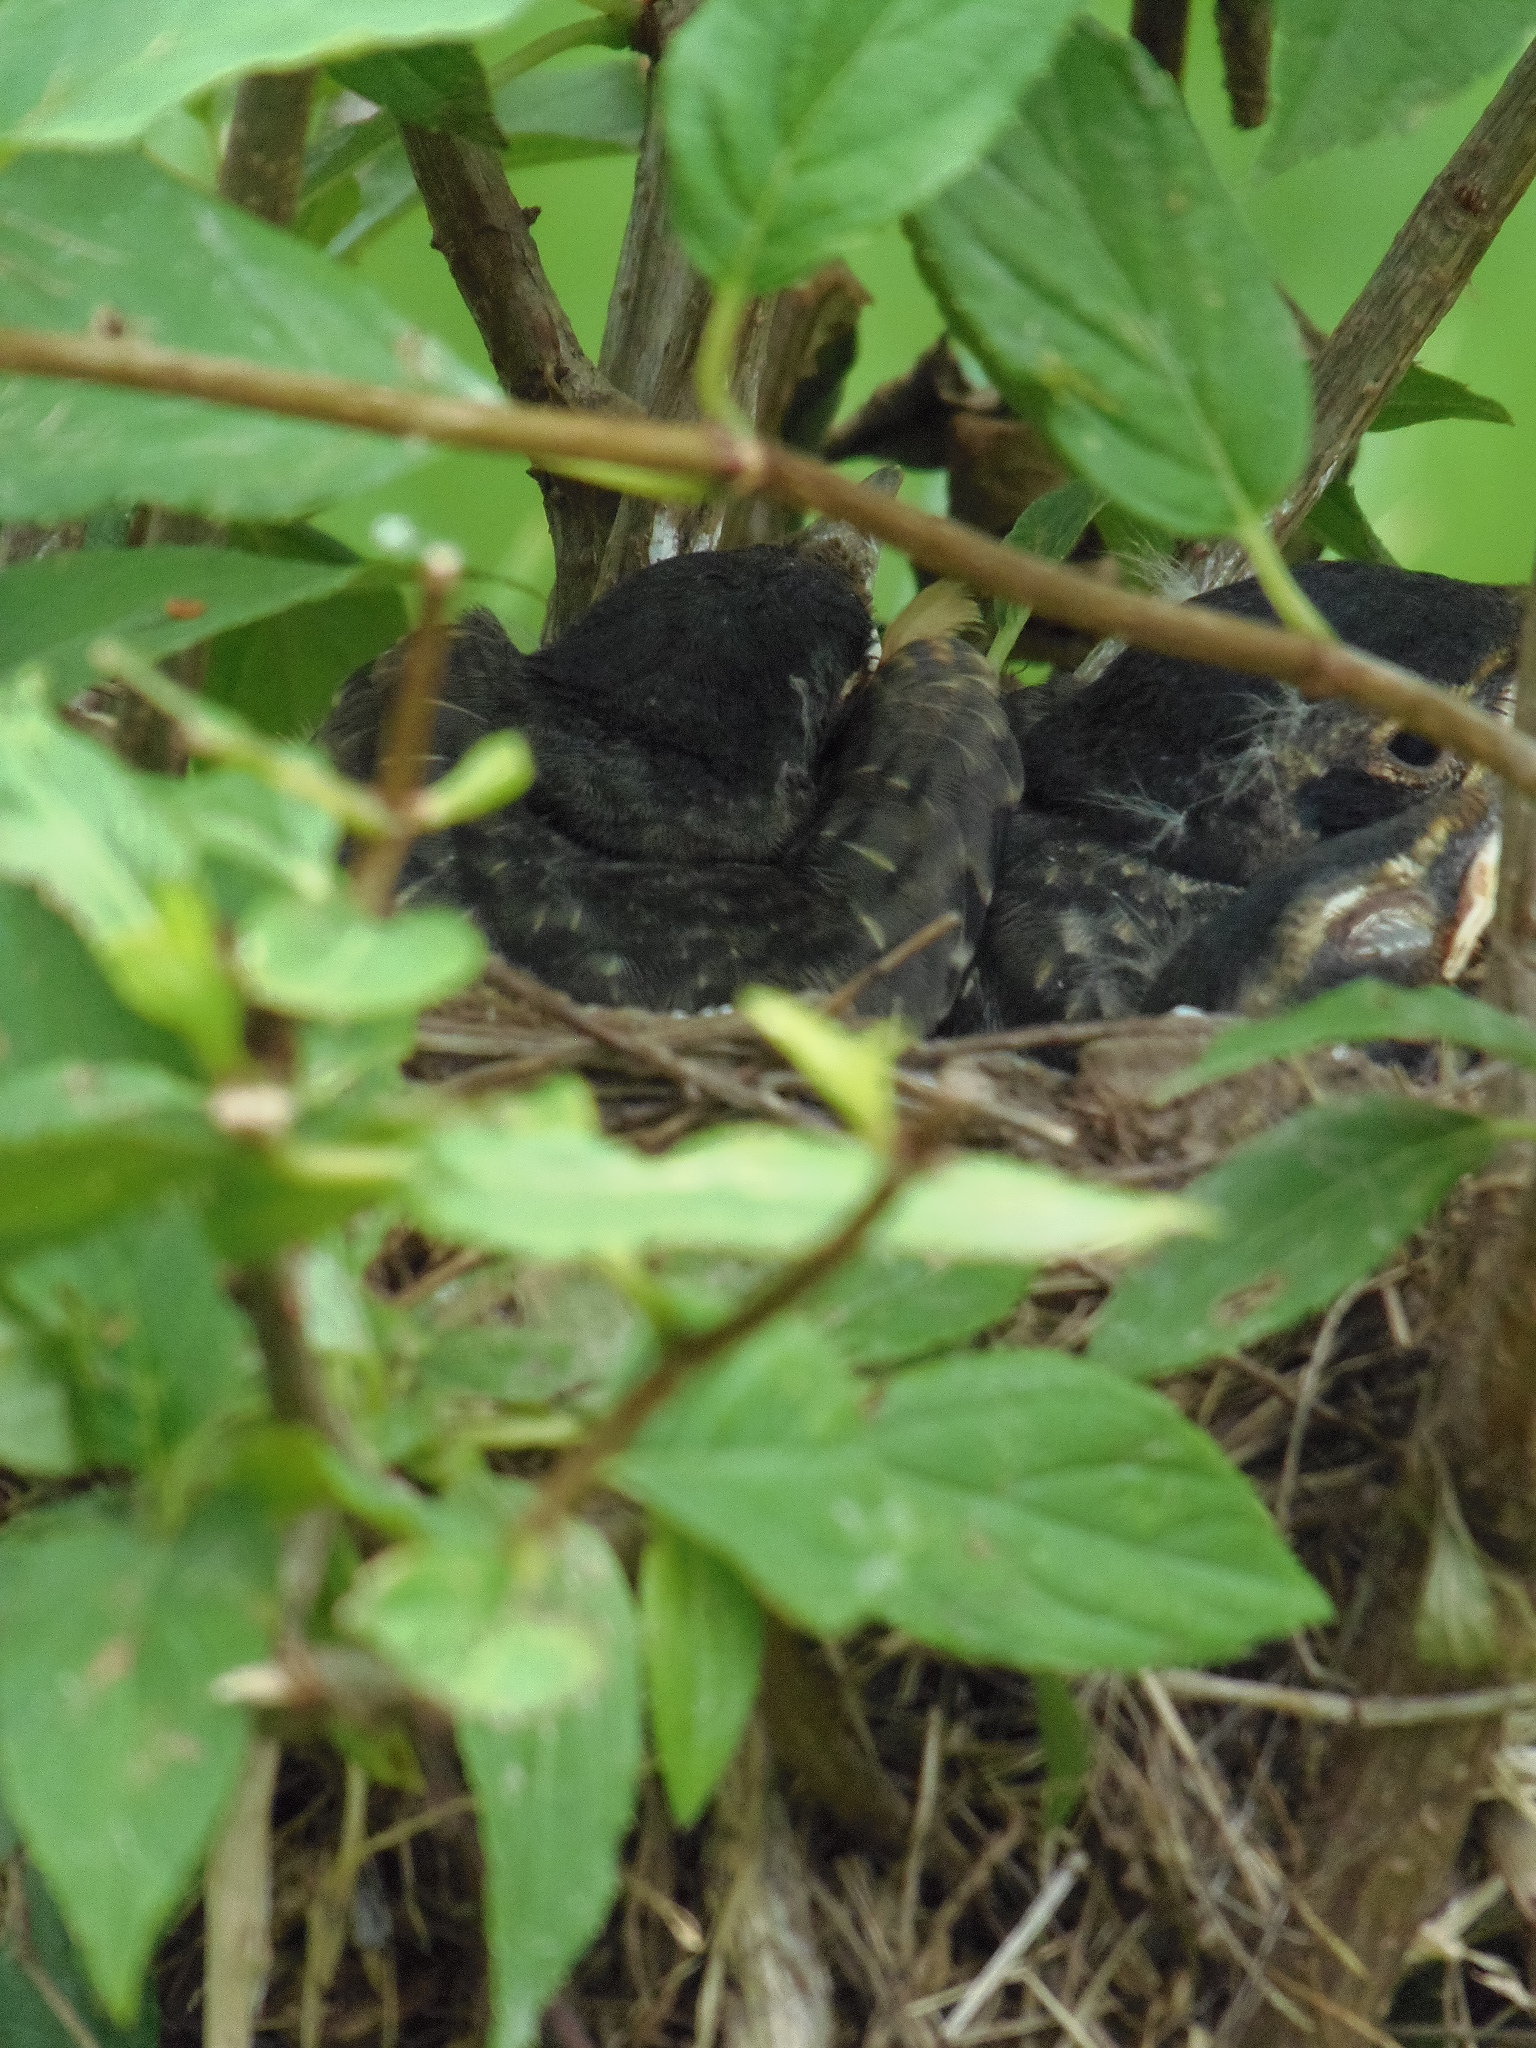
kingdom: Animalia
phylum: Chordata
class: Aves
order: Passeriformes
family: Turdidae
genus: Turdus
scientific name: Turdus migratorius
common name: American robin
